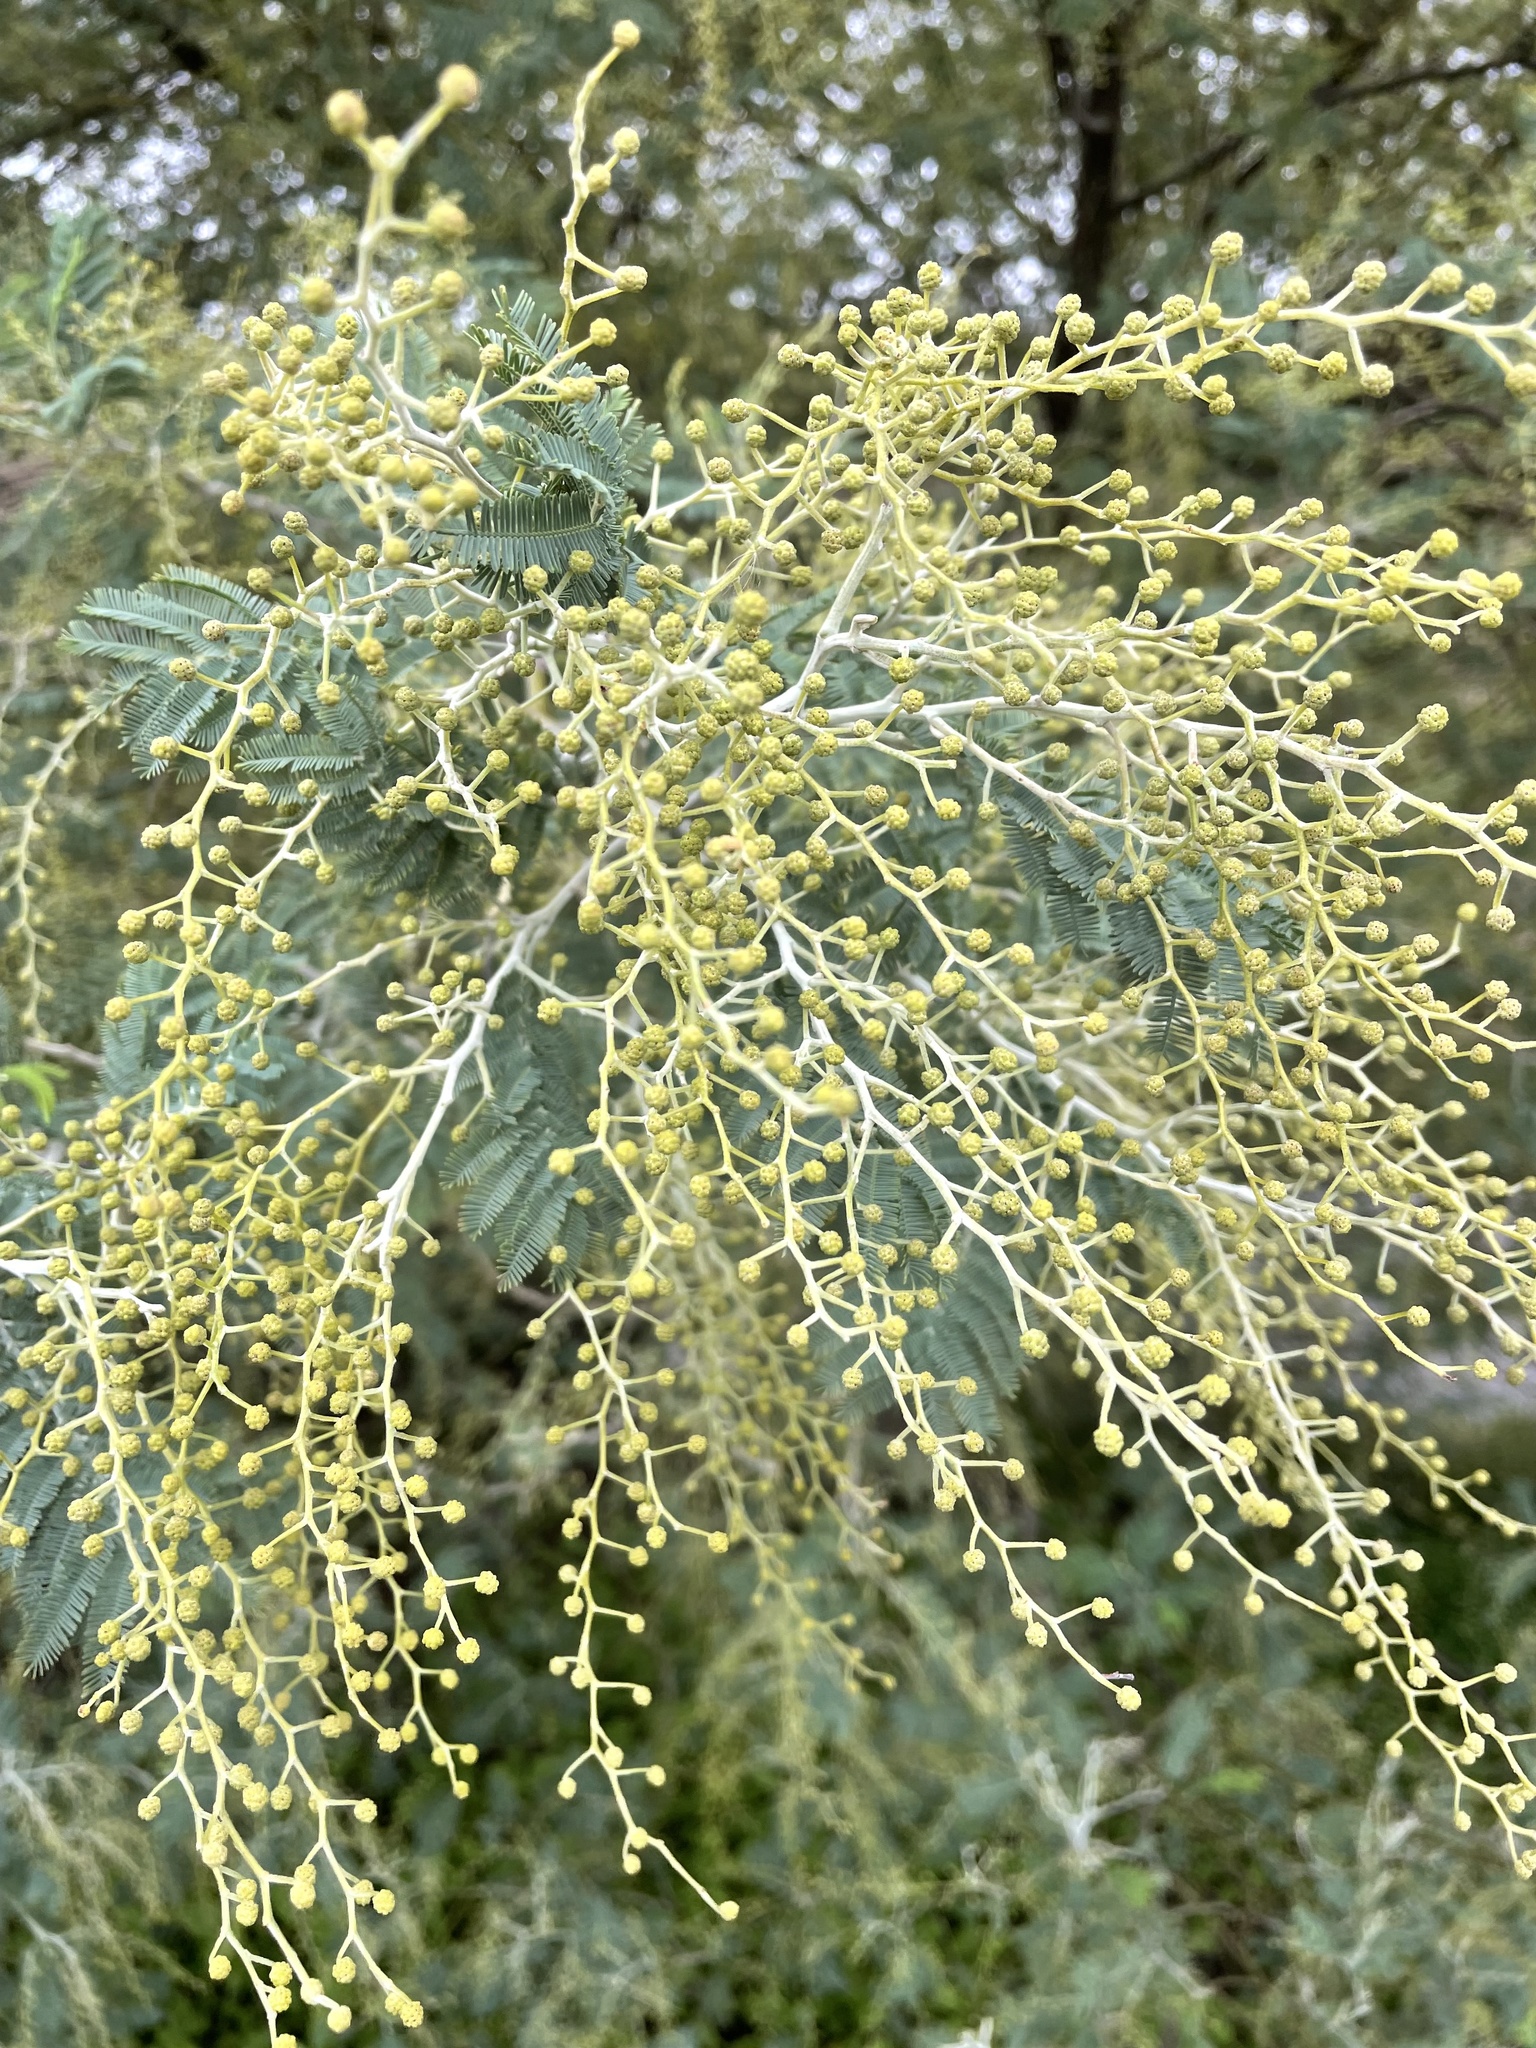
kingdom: Plantae
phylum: Tracheophyta
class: Magnoliopsida
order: Fabales
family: Fabaceae
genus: Acacia
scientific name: Acacia dealbata
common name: Silver wattle
